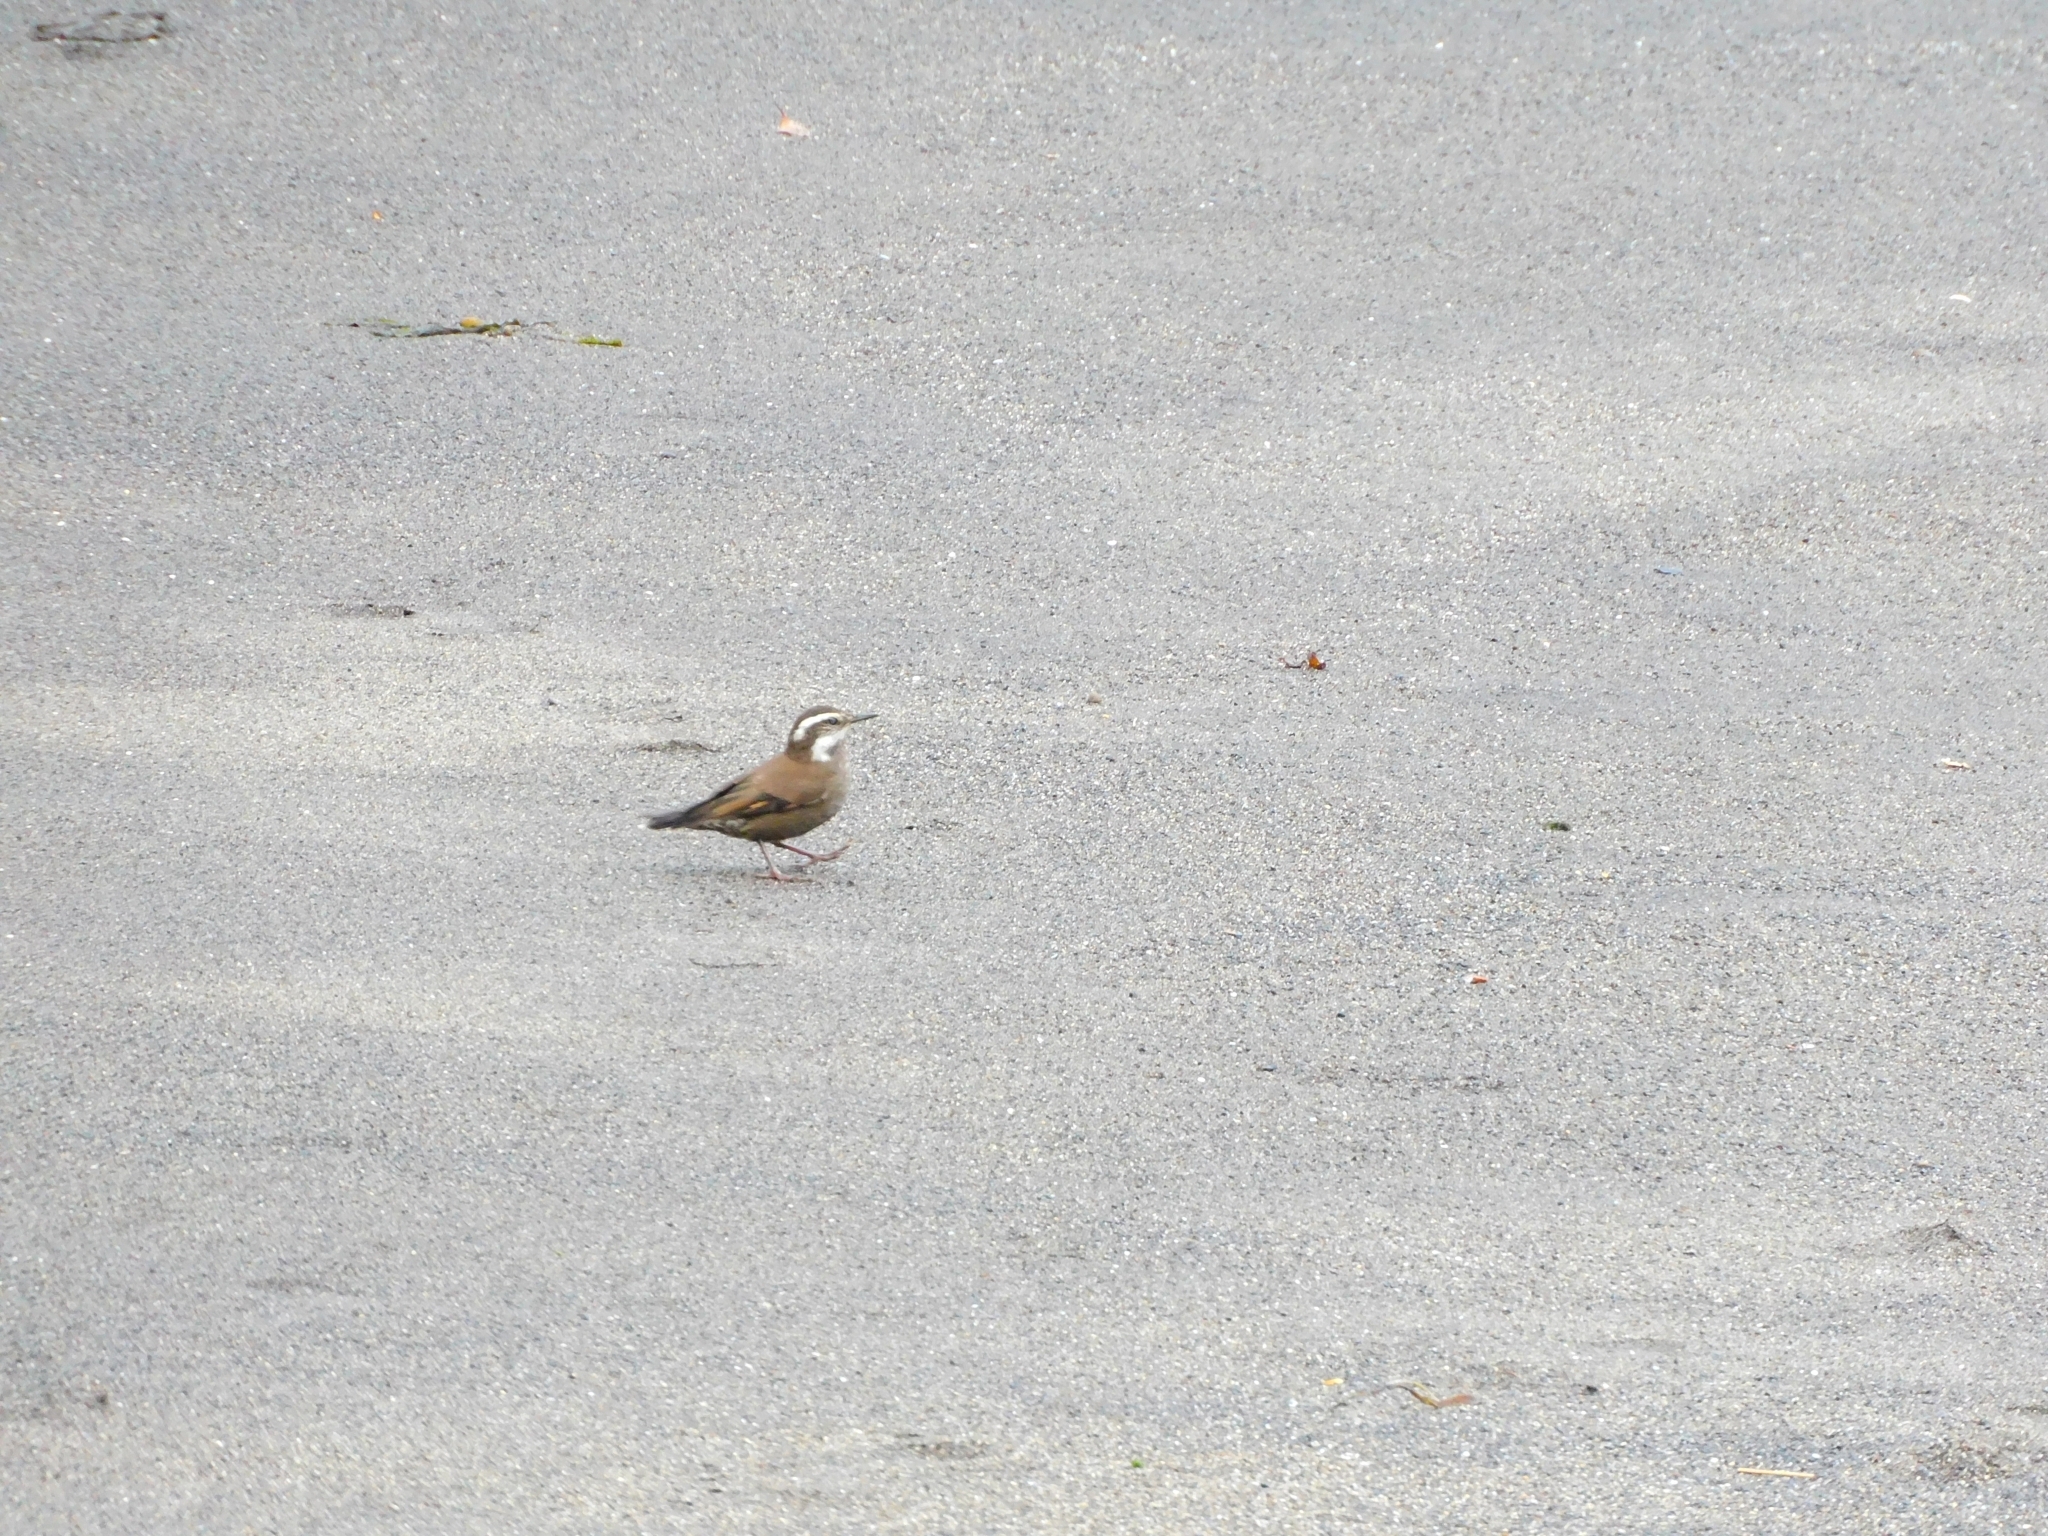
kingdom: Animalia
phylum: Chordata
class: Aves
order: Passeriformes
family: Furnariidae
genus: Cinclodes
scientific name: Cinclodes fuscus
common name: Buff-winged cinclodes
